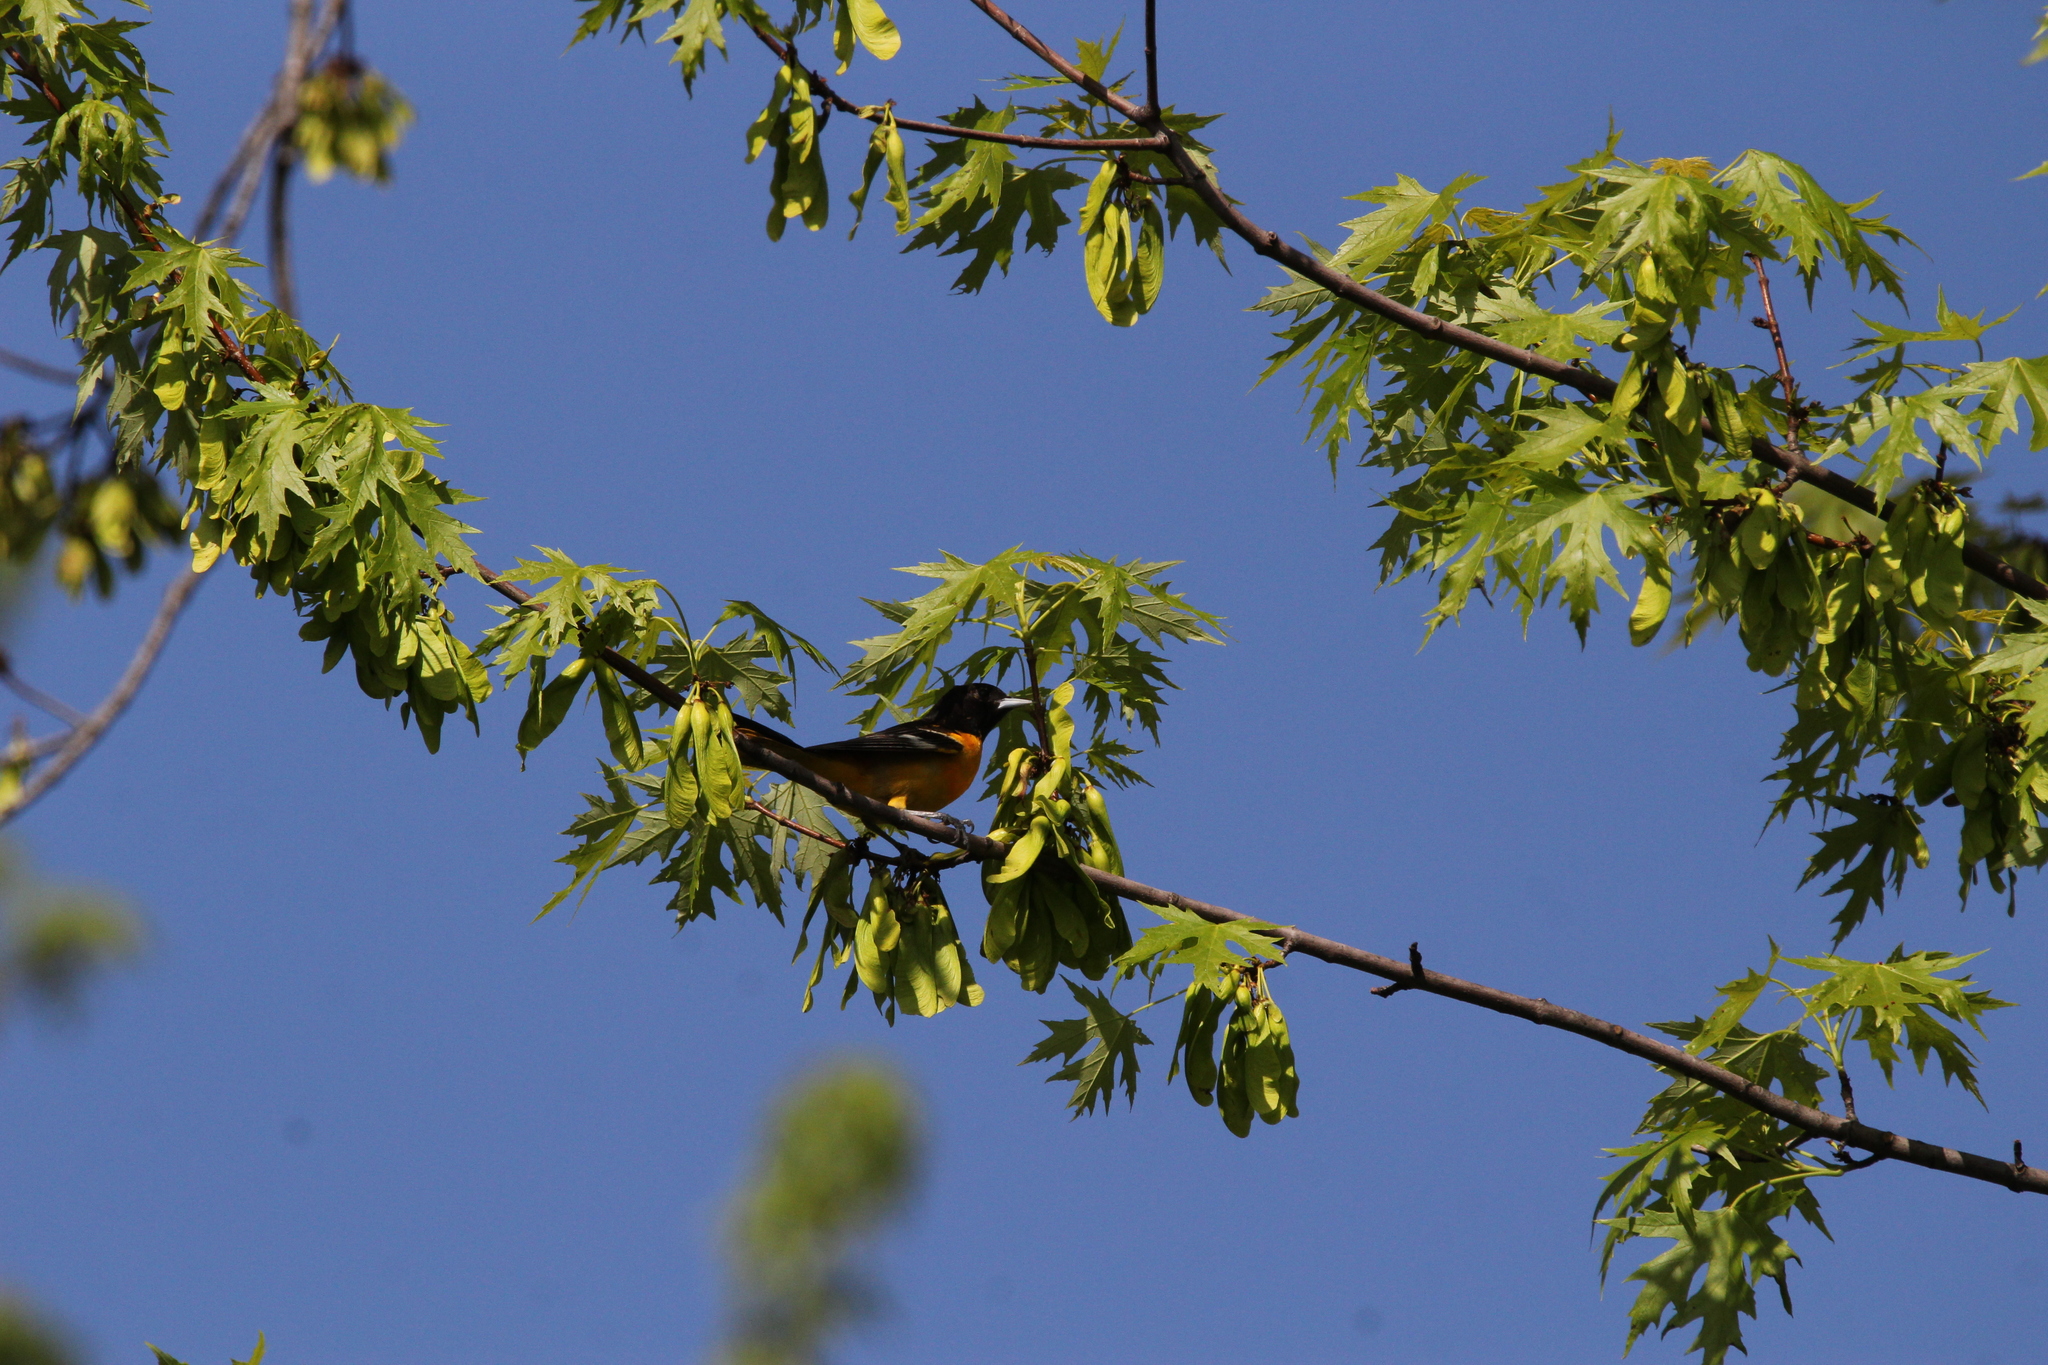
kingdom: Animalia
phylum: Chordata
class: Aves
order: Passeriformes
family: Icteridae
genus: Icterus
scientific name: Icterus galbula
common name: Baltimore oriole
